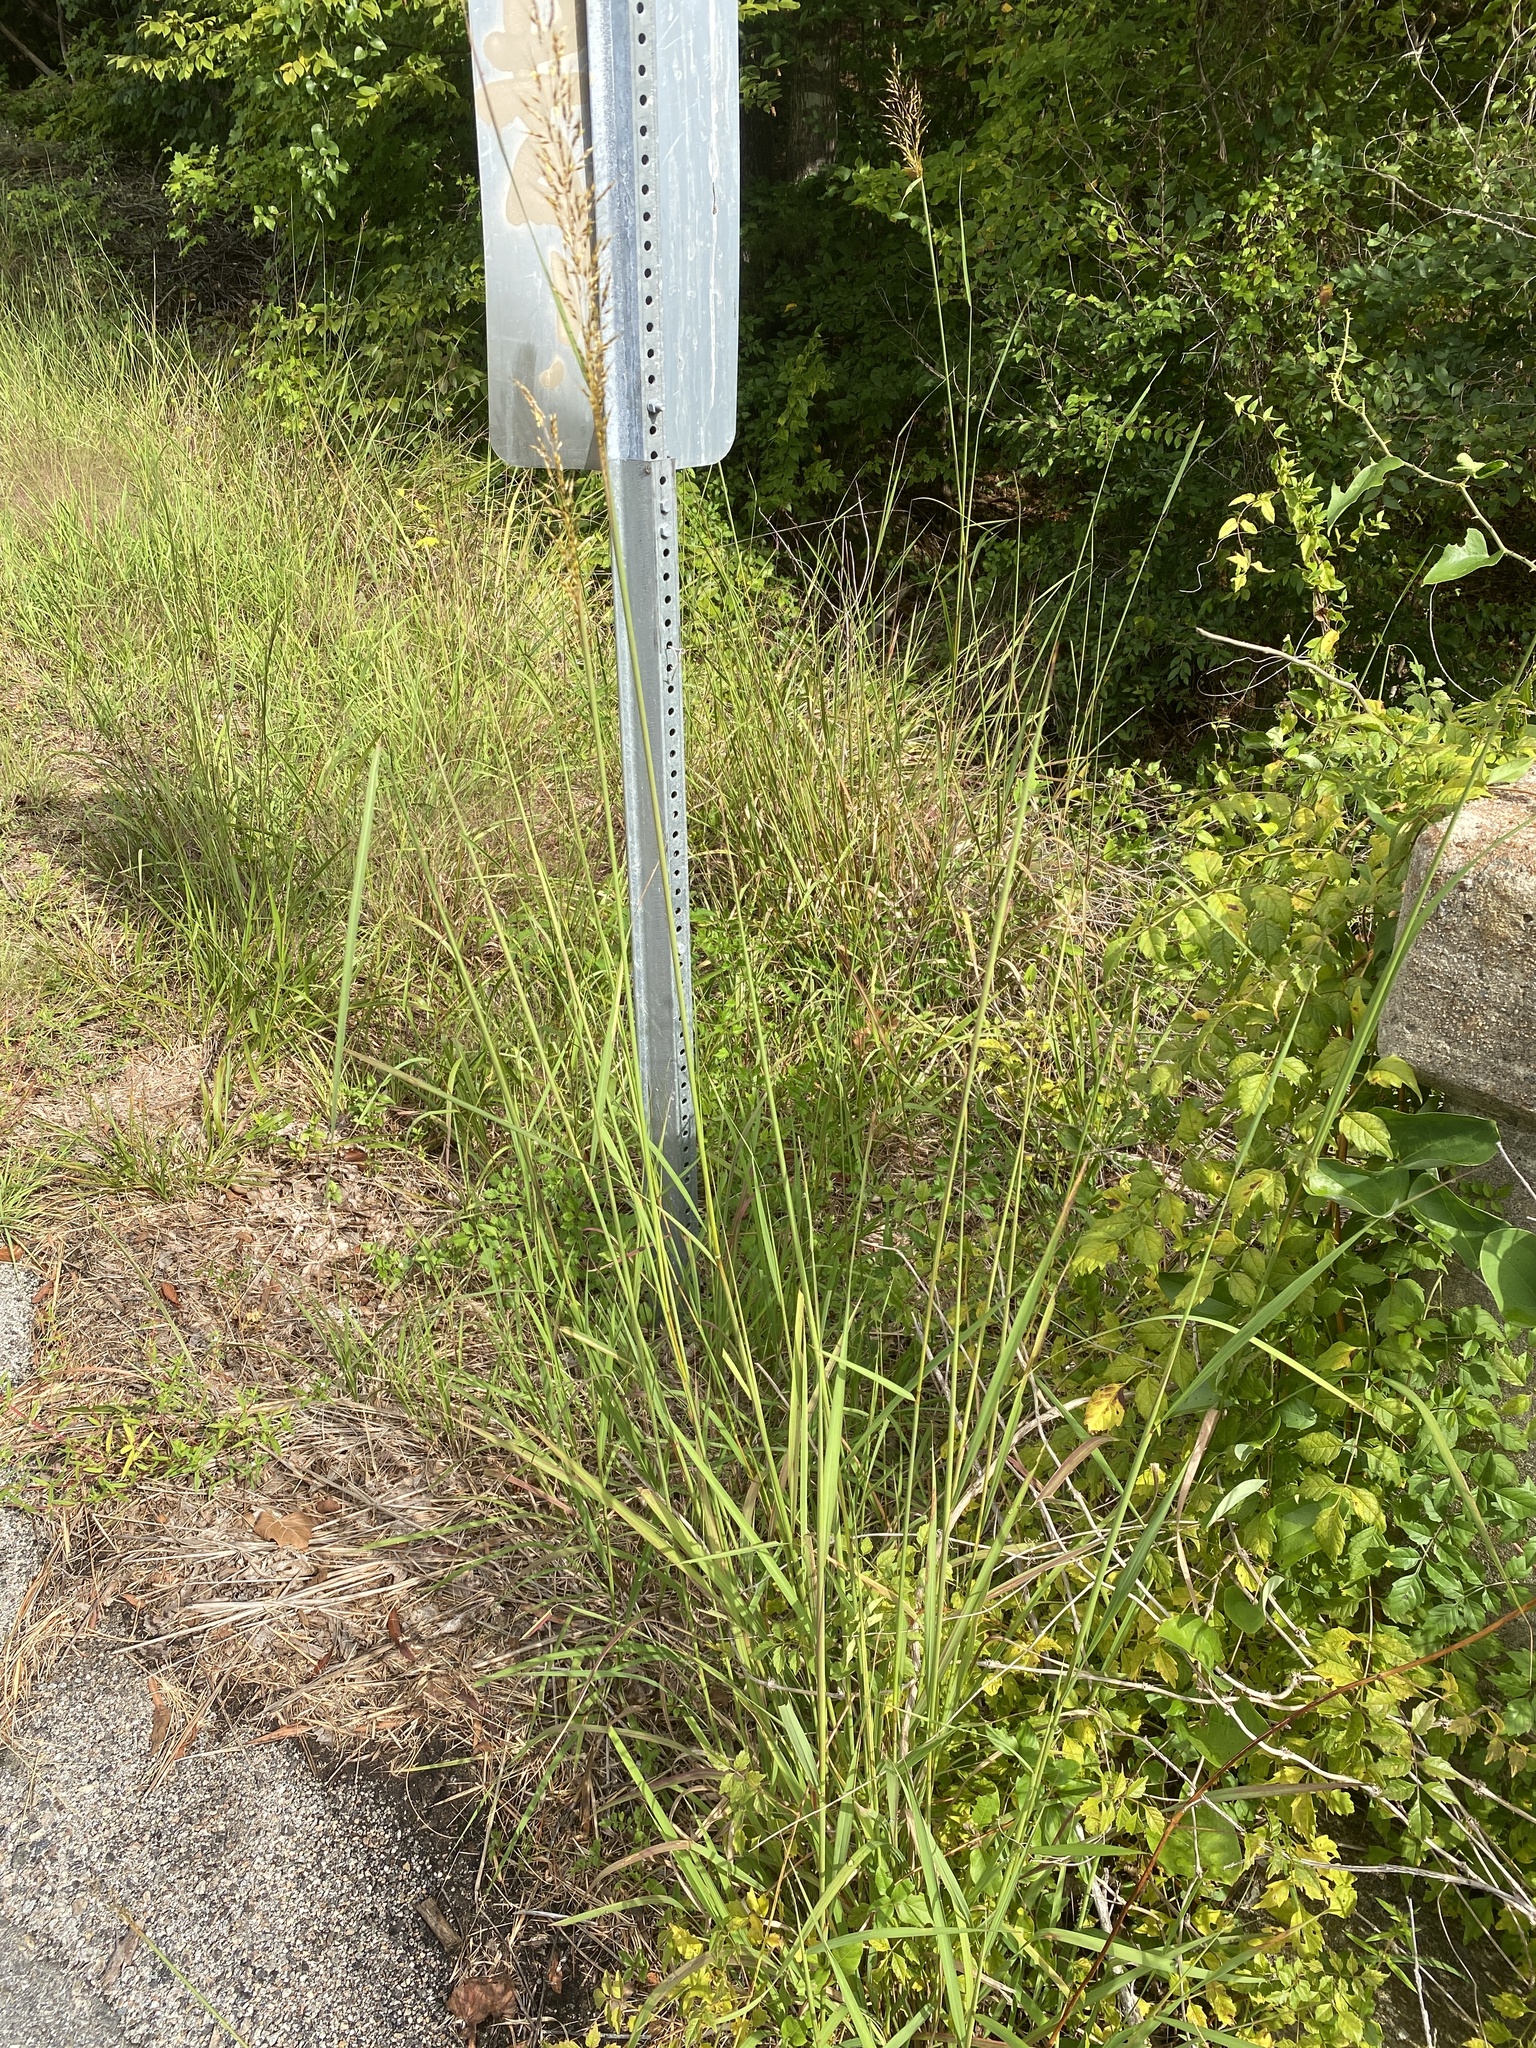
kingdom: Plantae
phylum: Tracheophyta
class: Liliopsida
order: Poales
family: Poaceae
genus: Sorghastrum
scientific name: Sorghastrum nutans
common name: Indian grass
